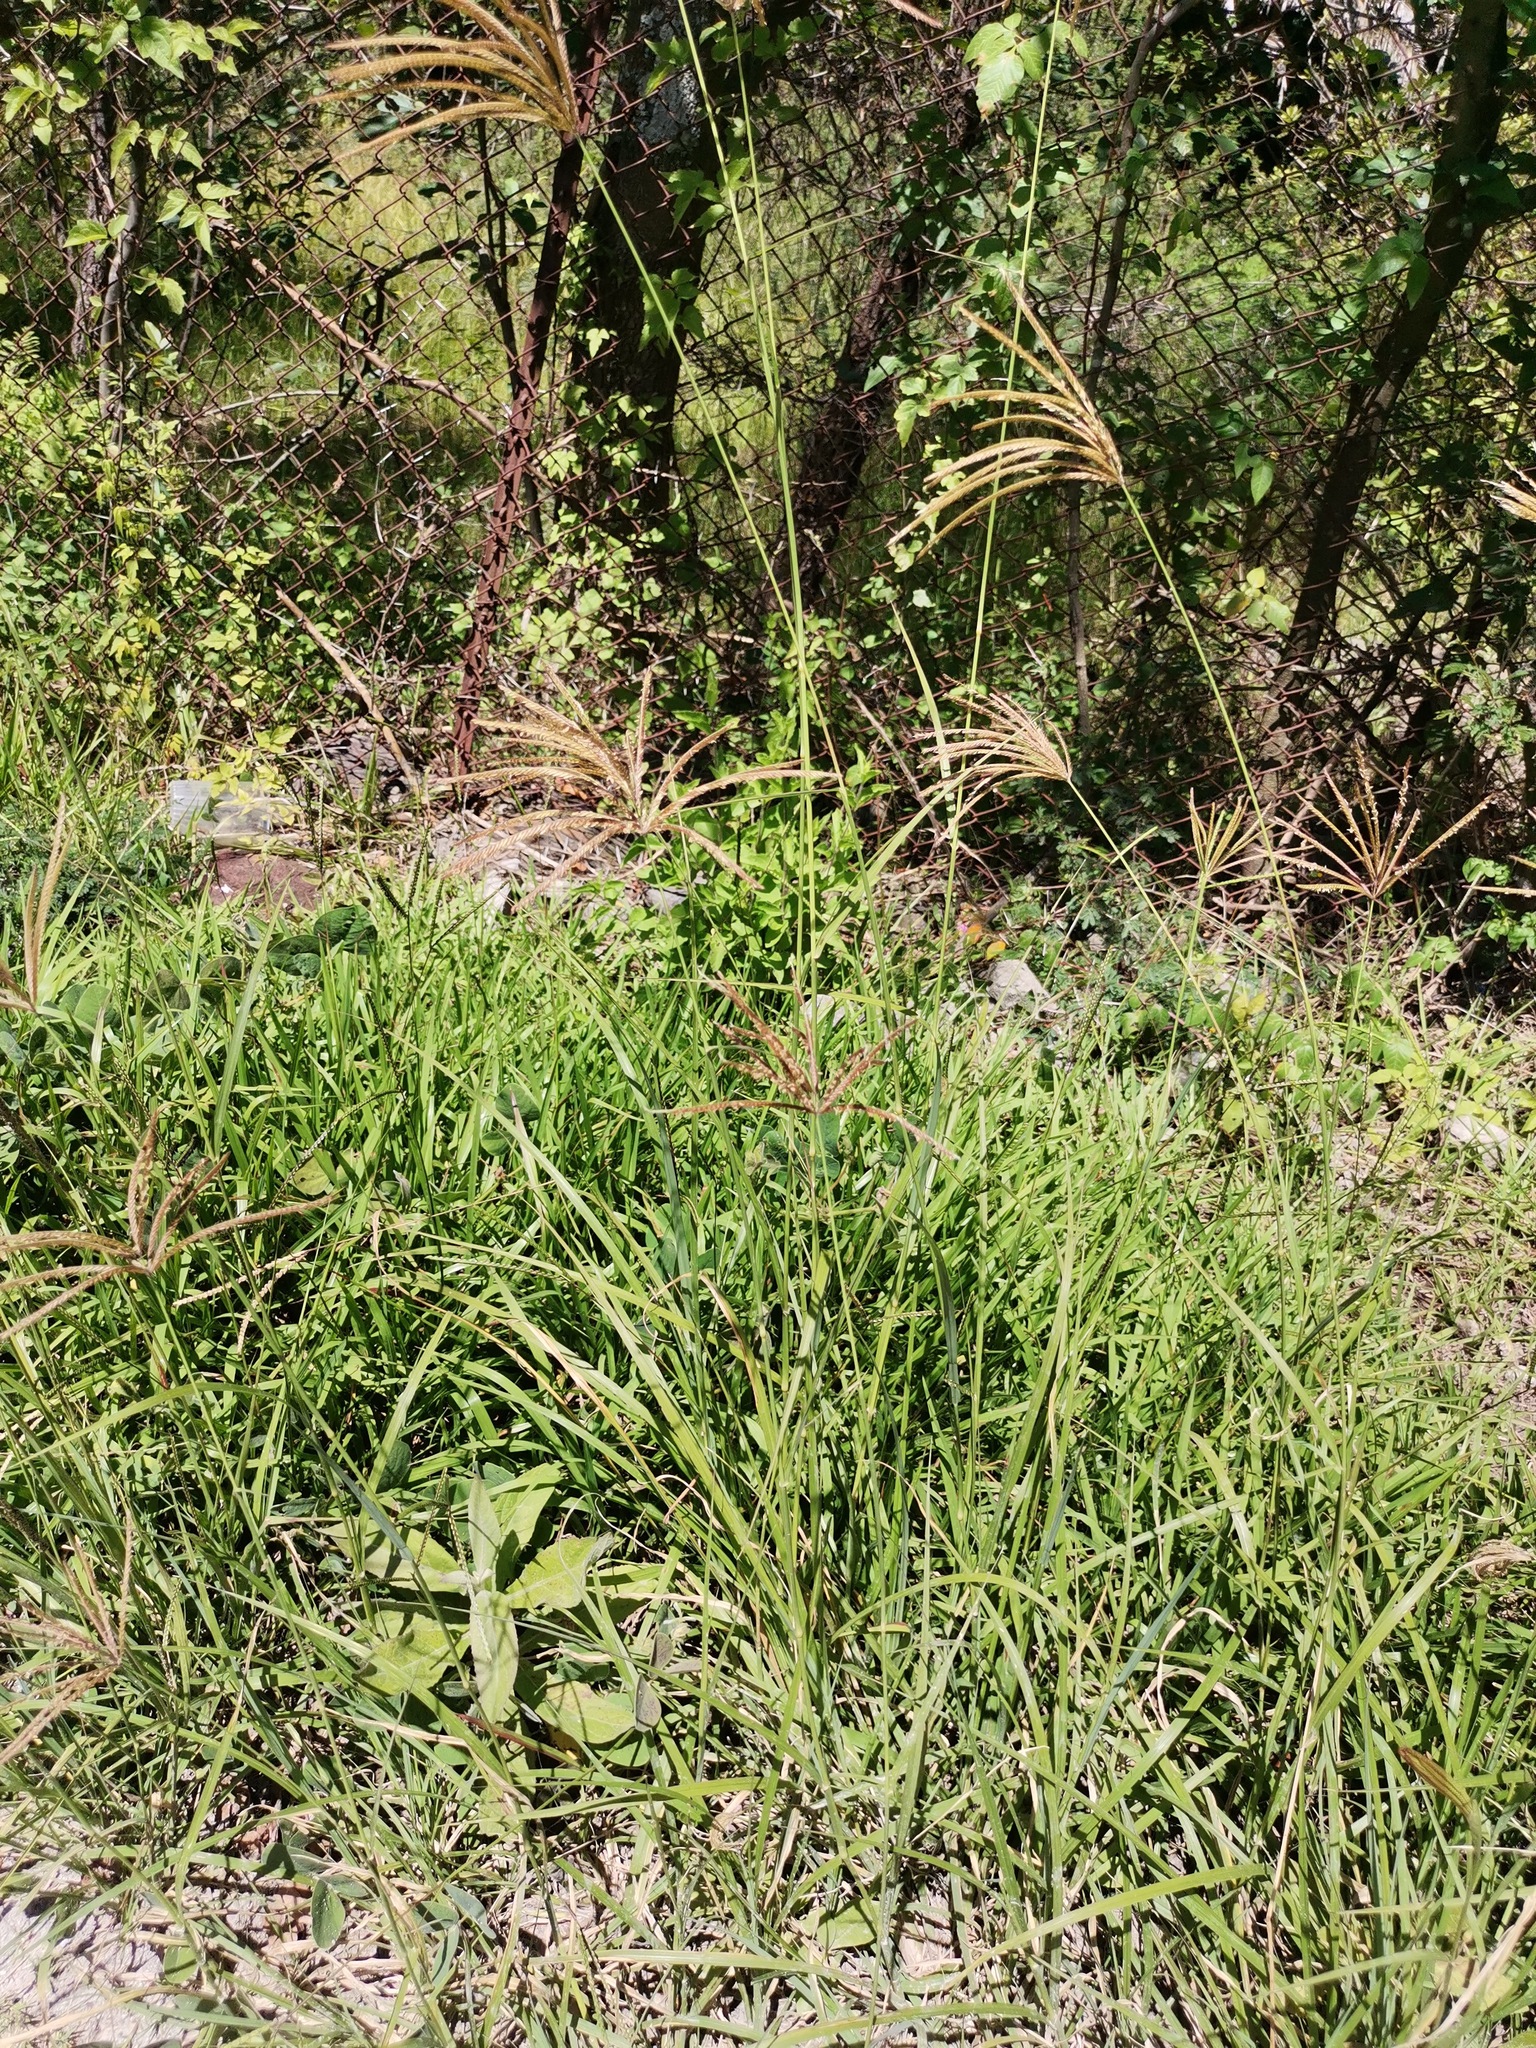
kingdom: Plantae
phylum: Tracheophyta
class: Liliopsida
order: Poales
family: Poaceae
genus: Chloris
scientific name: Chloris gayana
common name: Rhodes grass
